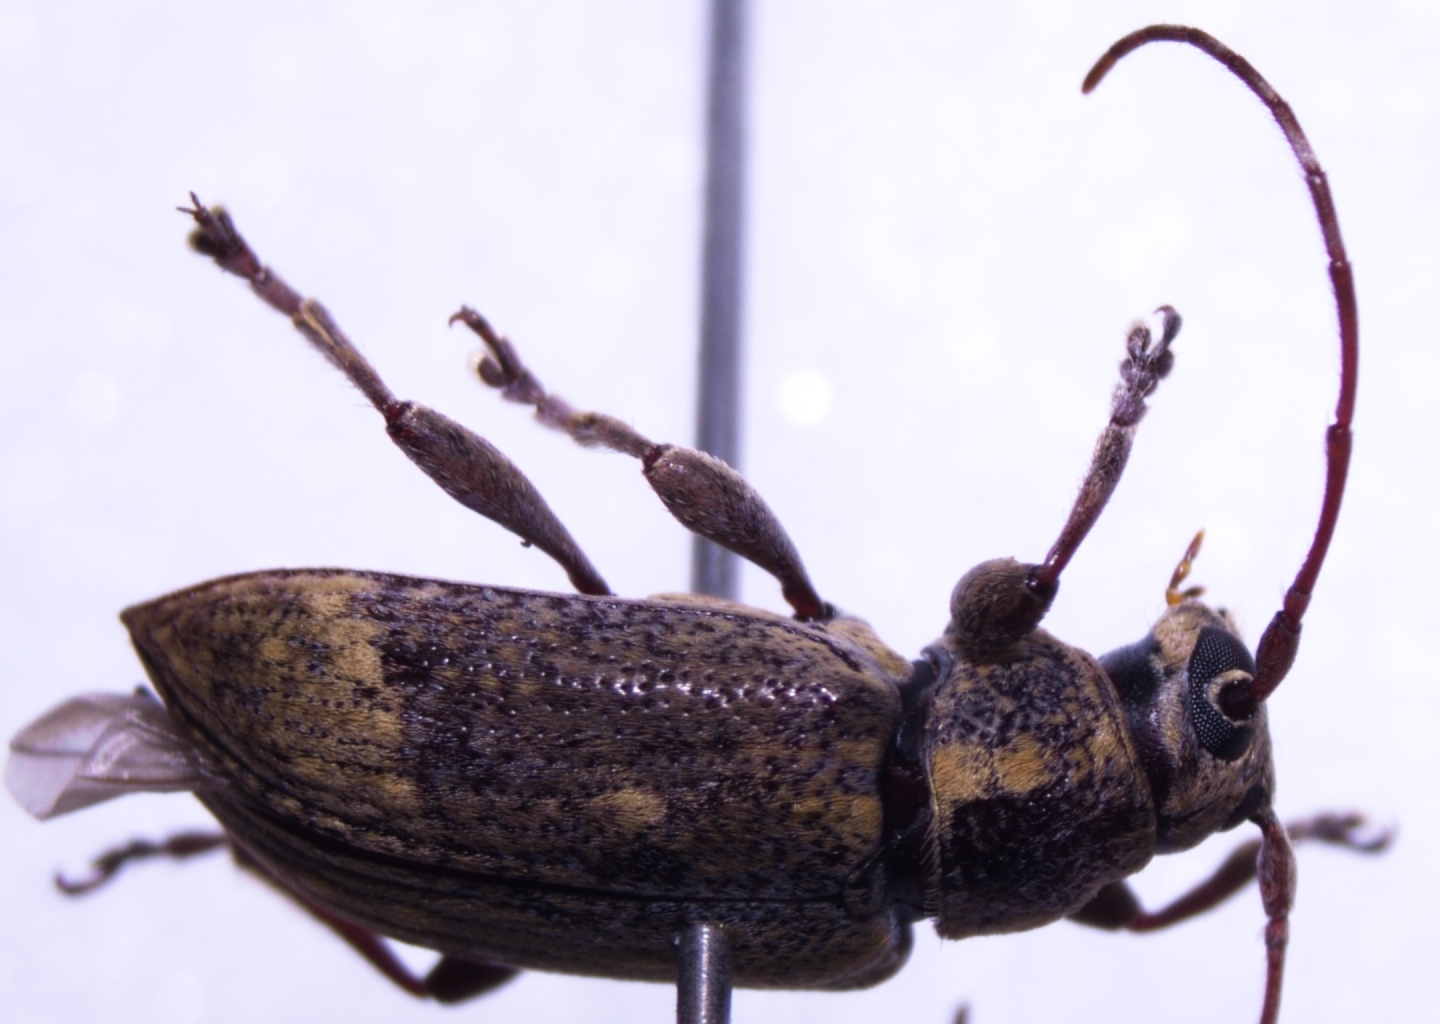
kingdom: Animalia
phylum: Arthropoda
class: Insecta
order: Coleoptera
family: Cerambycidae
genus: Oopsis
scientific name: Oopsis nutator
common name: Oopsis long-horned beetle
